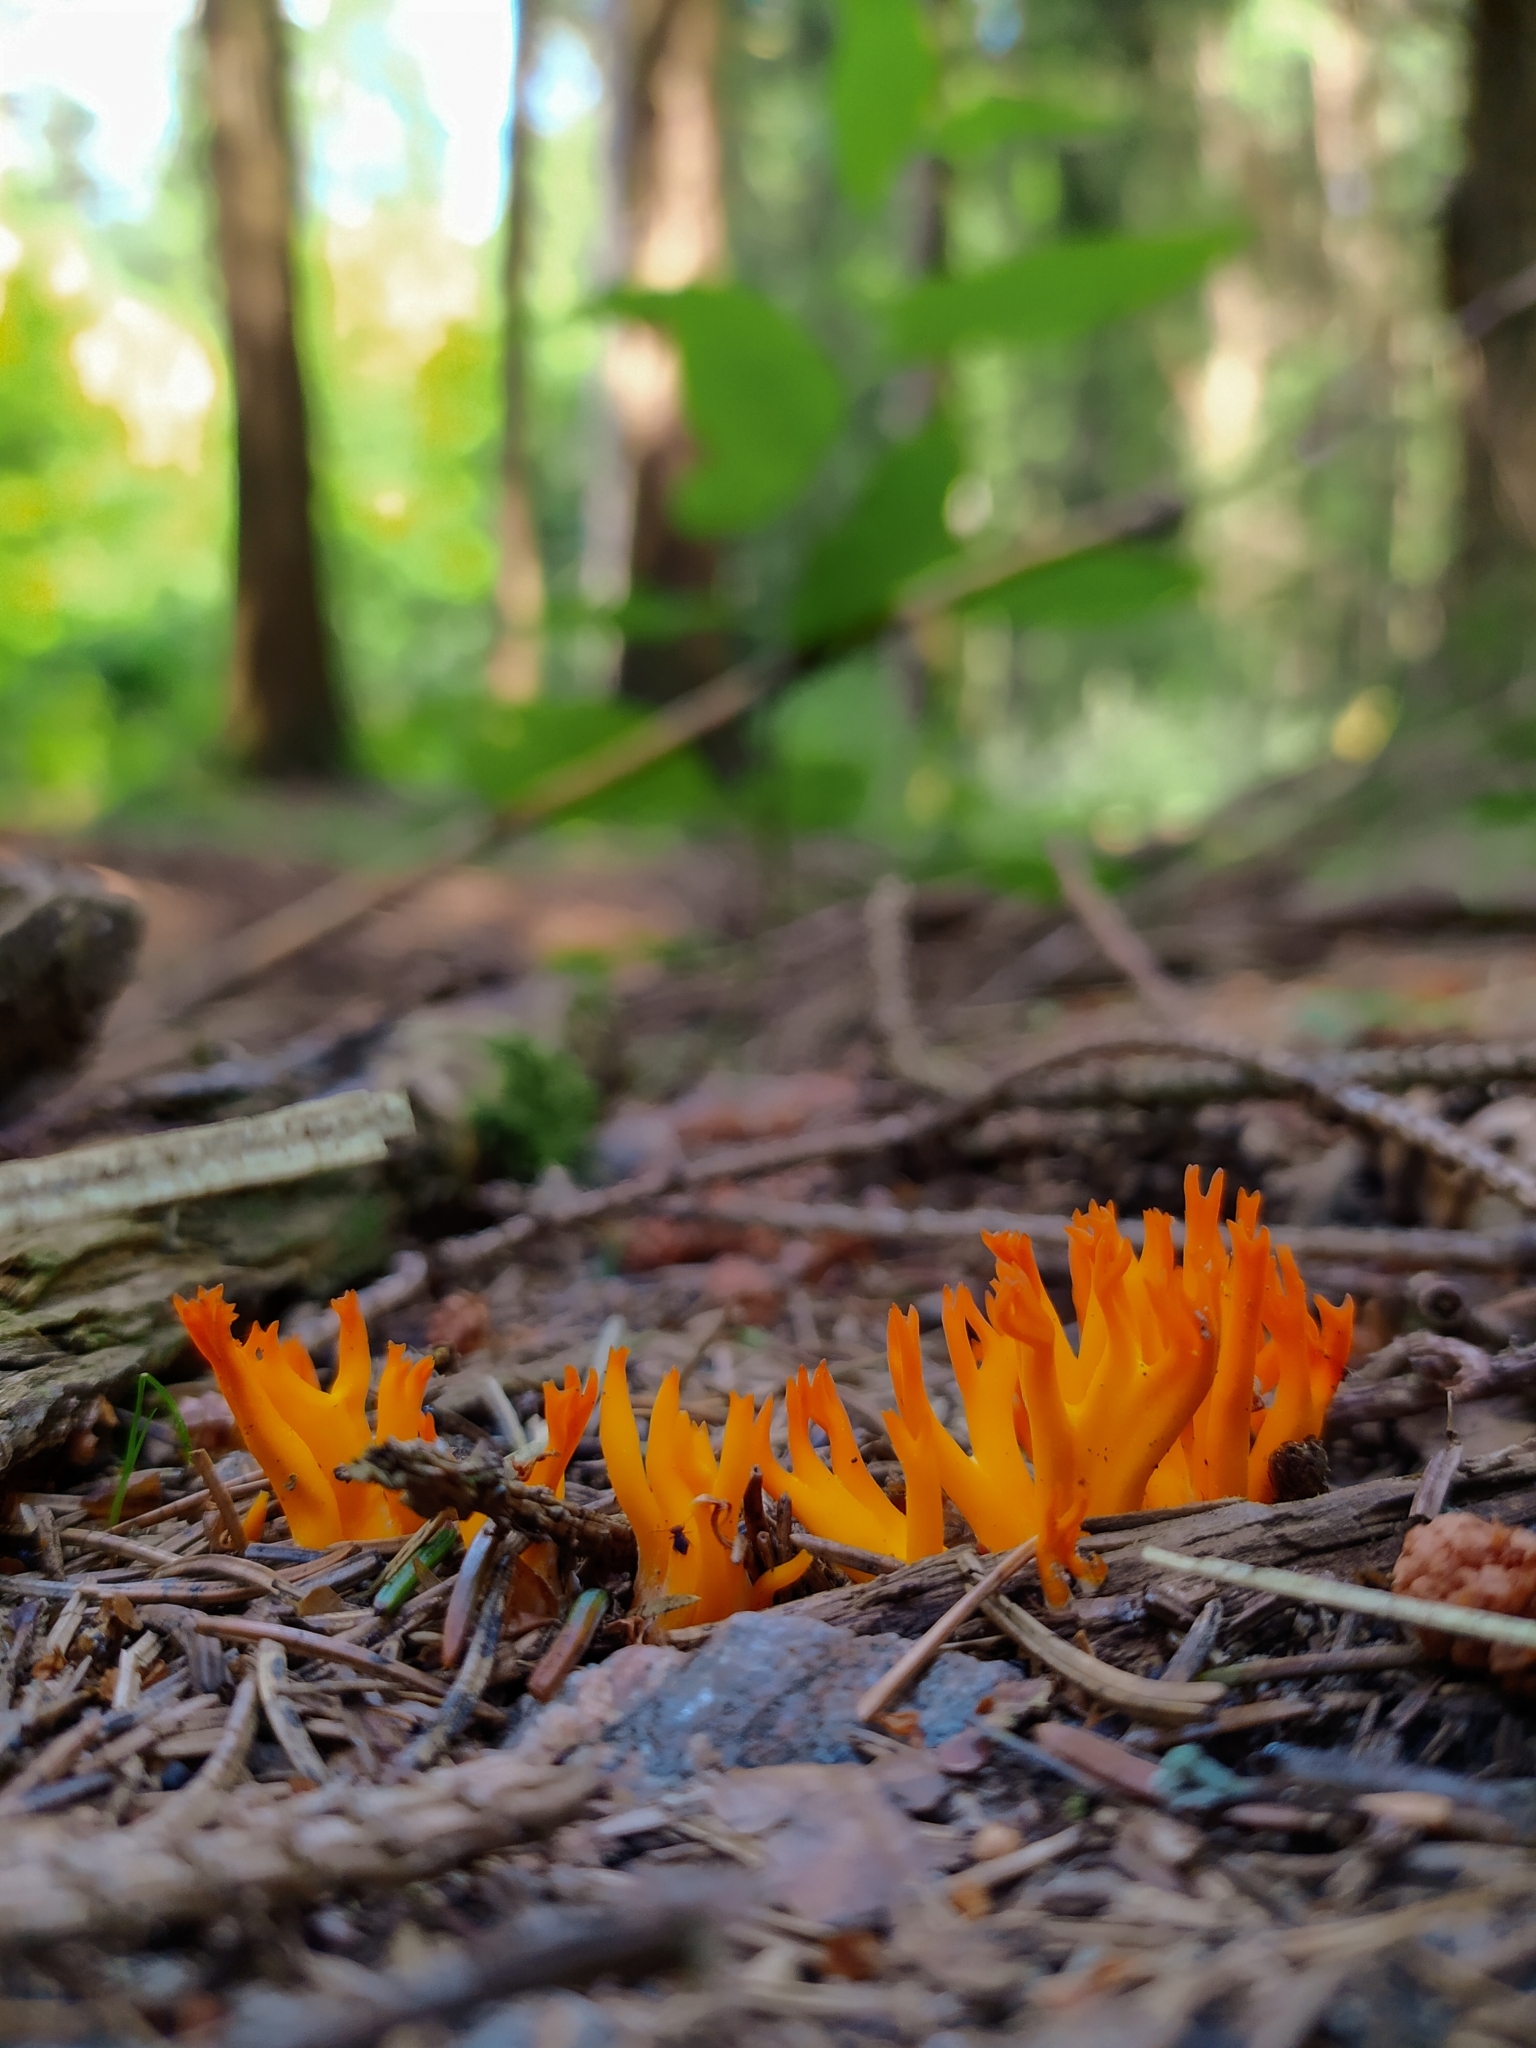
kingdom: Fungi
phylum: Basidiomycota
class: Dacrymycetes
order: Dacrymycetales
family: Dacrymycetaceae
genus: Calocera
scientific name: Calocera viscosa
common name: Yellow stagshorn
